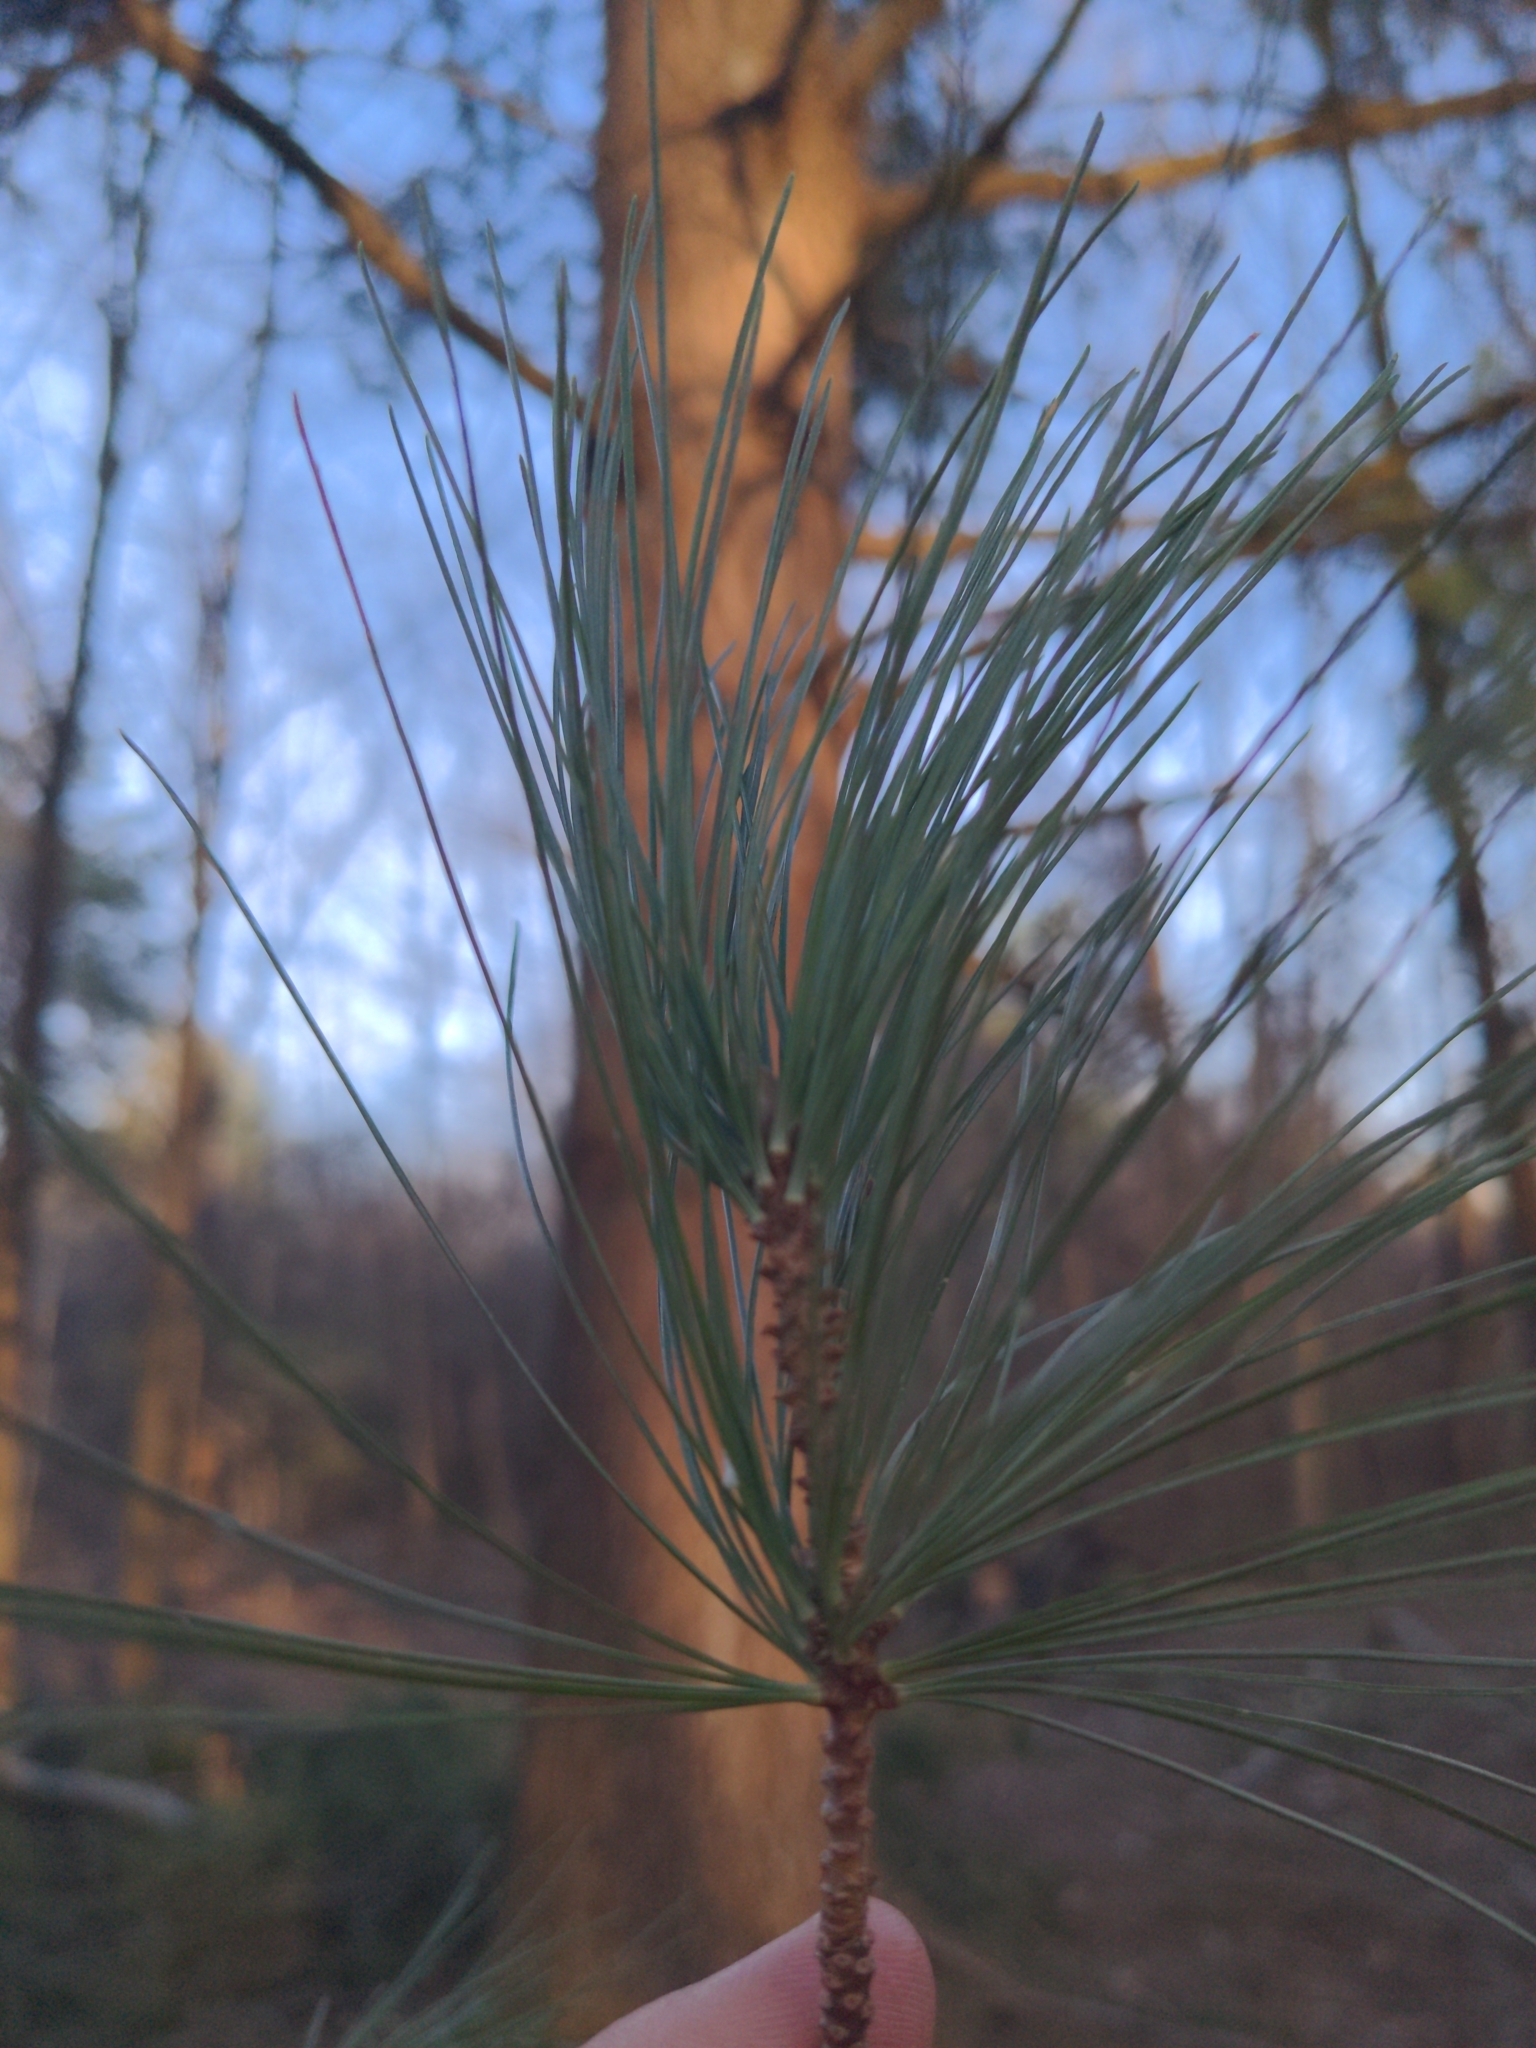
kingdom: Plantae
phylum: Tracheophyta
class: Pinopsida
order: Pinales
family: Pinaceae
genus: Pinus
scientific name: Pinus strobus
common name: Weymouth pine
